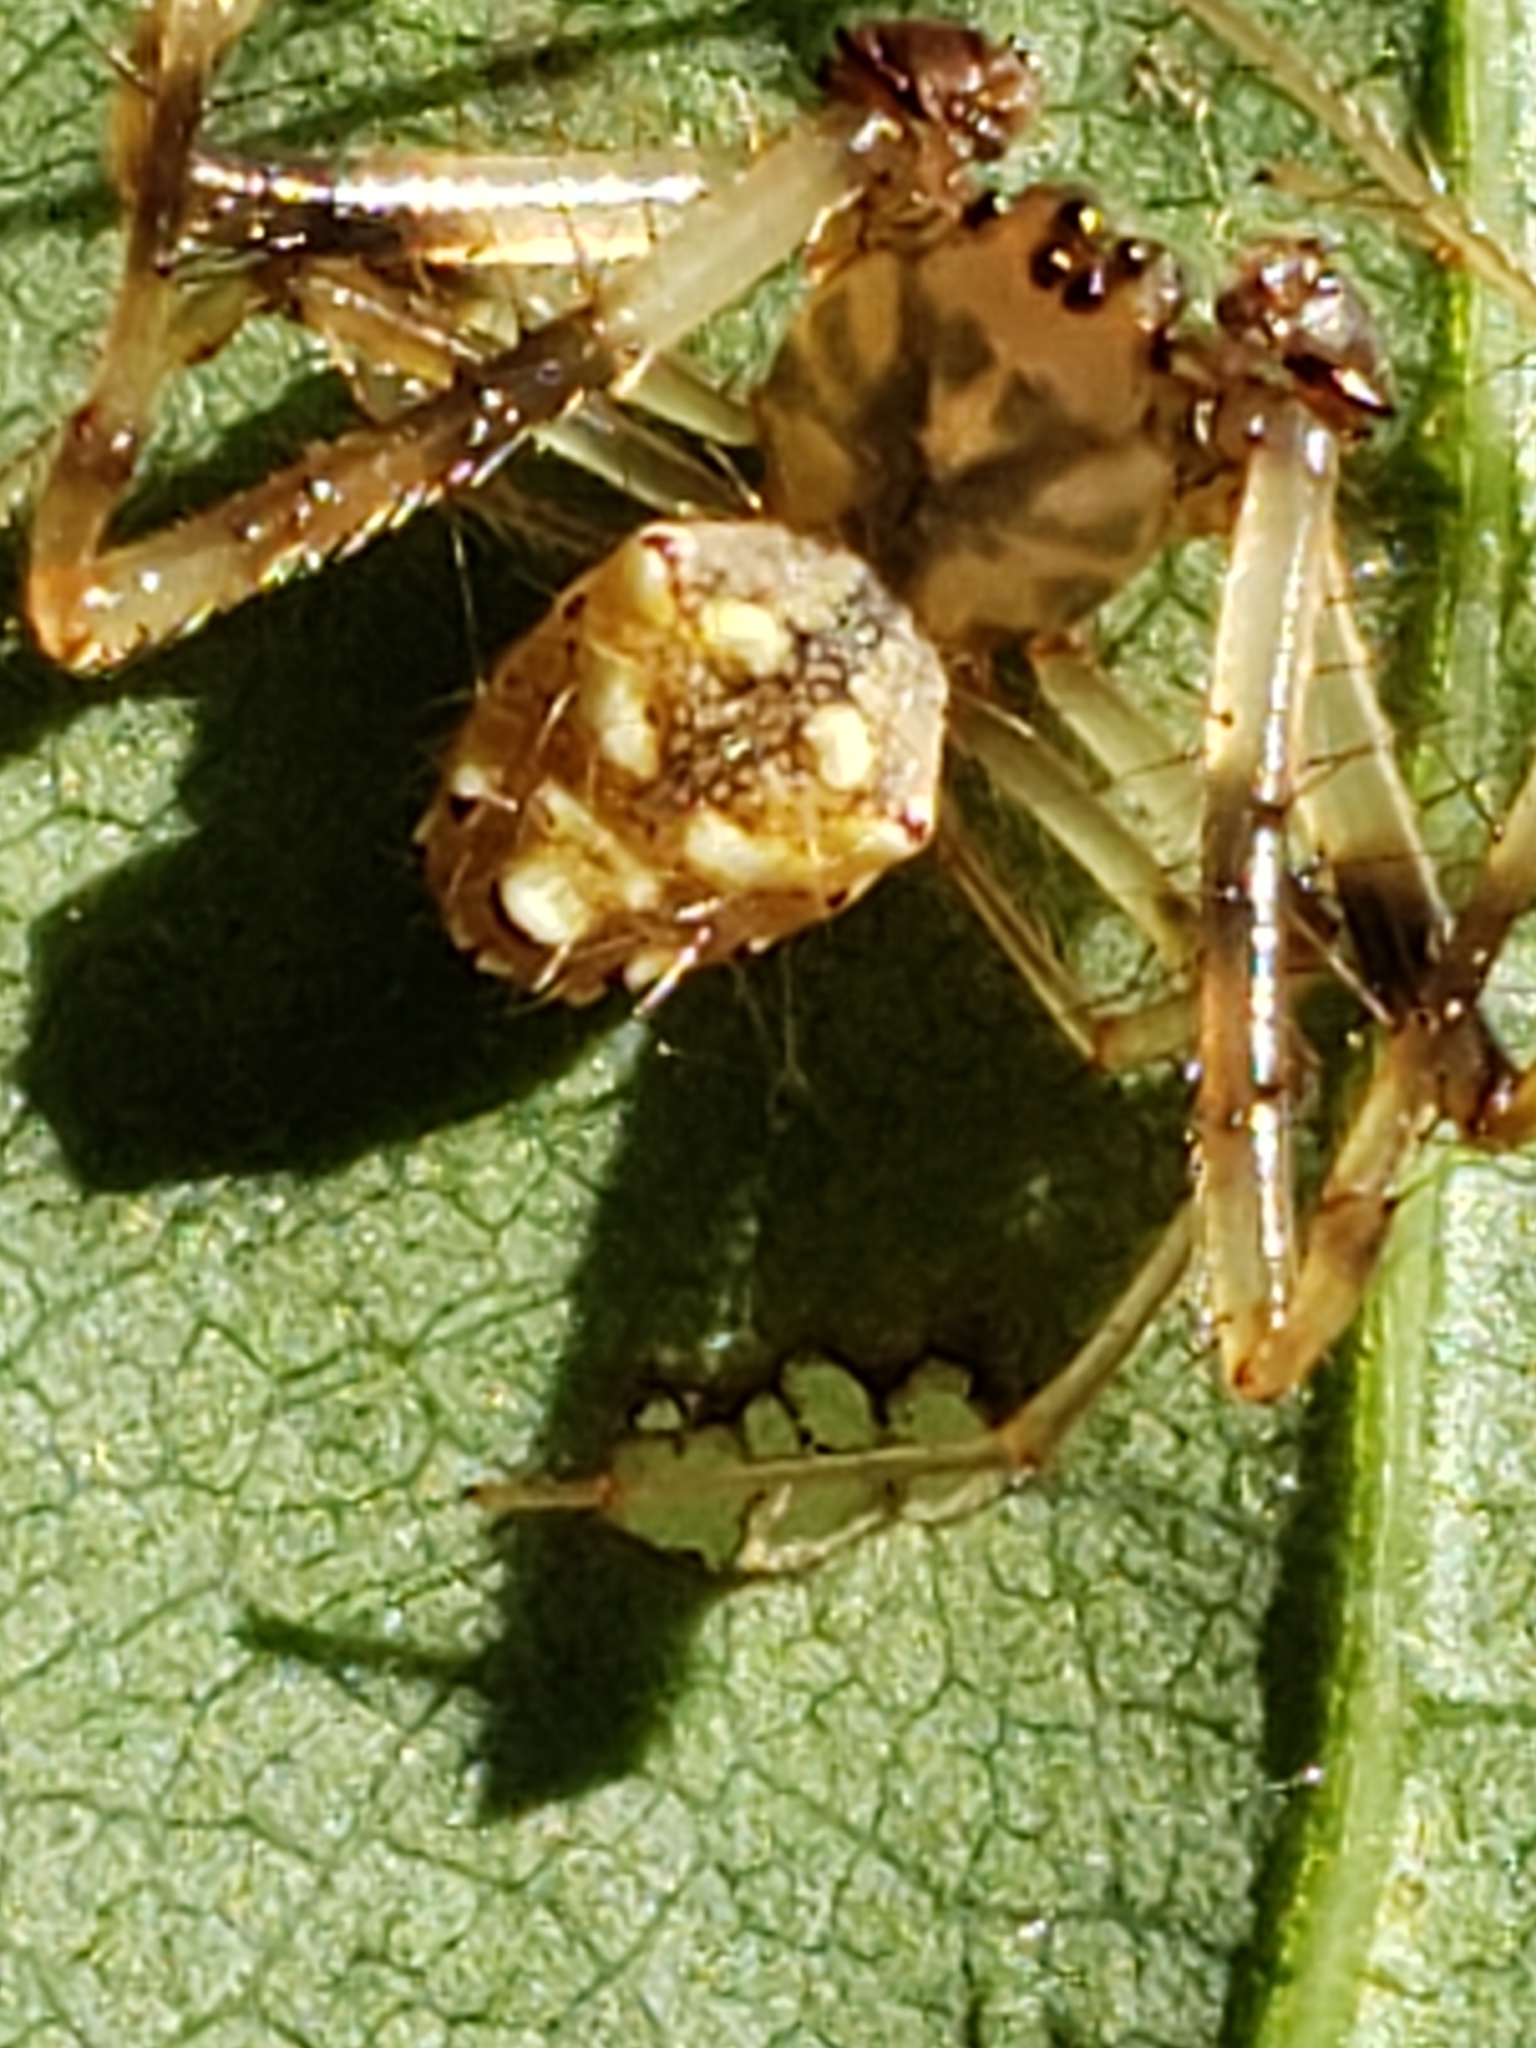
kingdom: Animalia
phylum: Arthropoda
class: Arachnida
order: Araneae
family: Araneidae
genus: Verrucosa
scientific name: Verrucosa arenata
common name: Orb weavers
